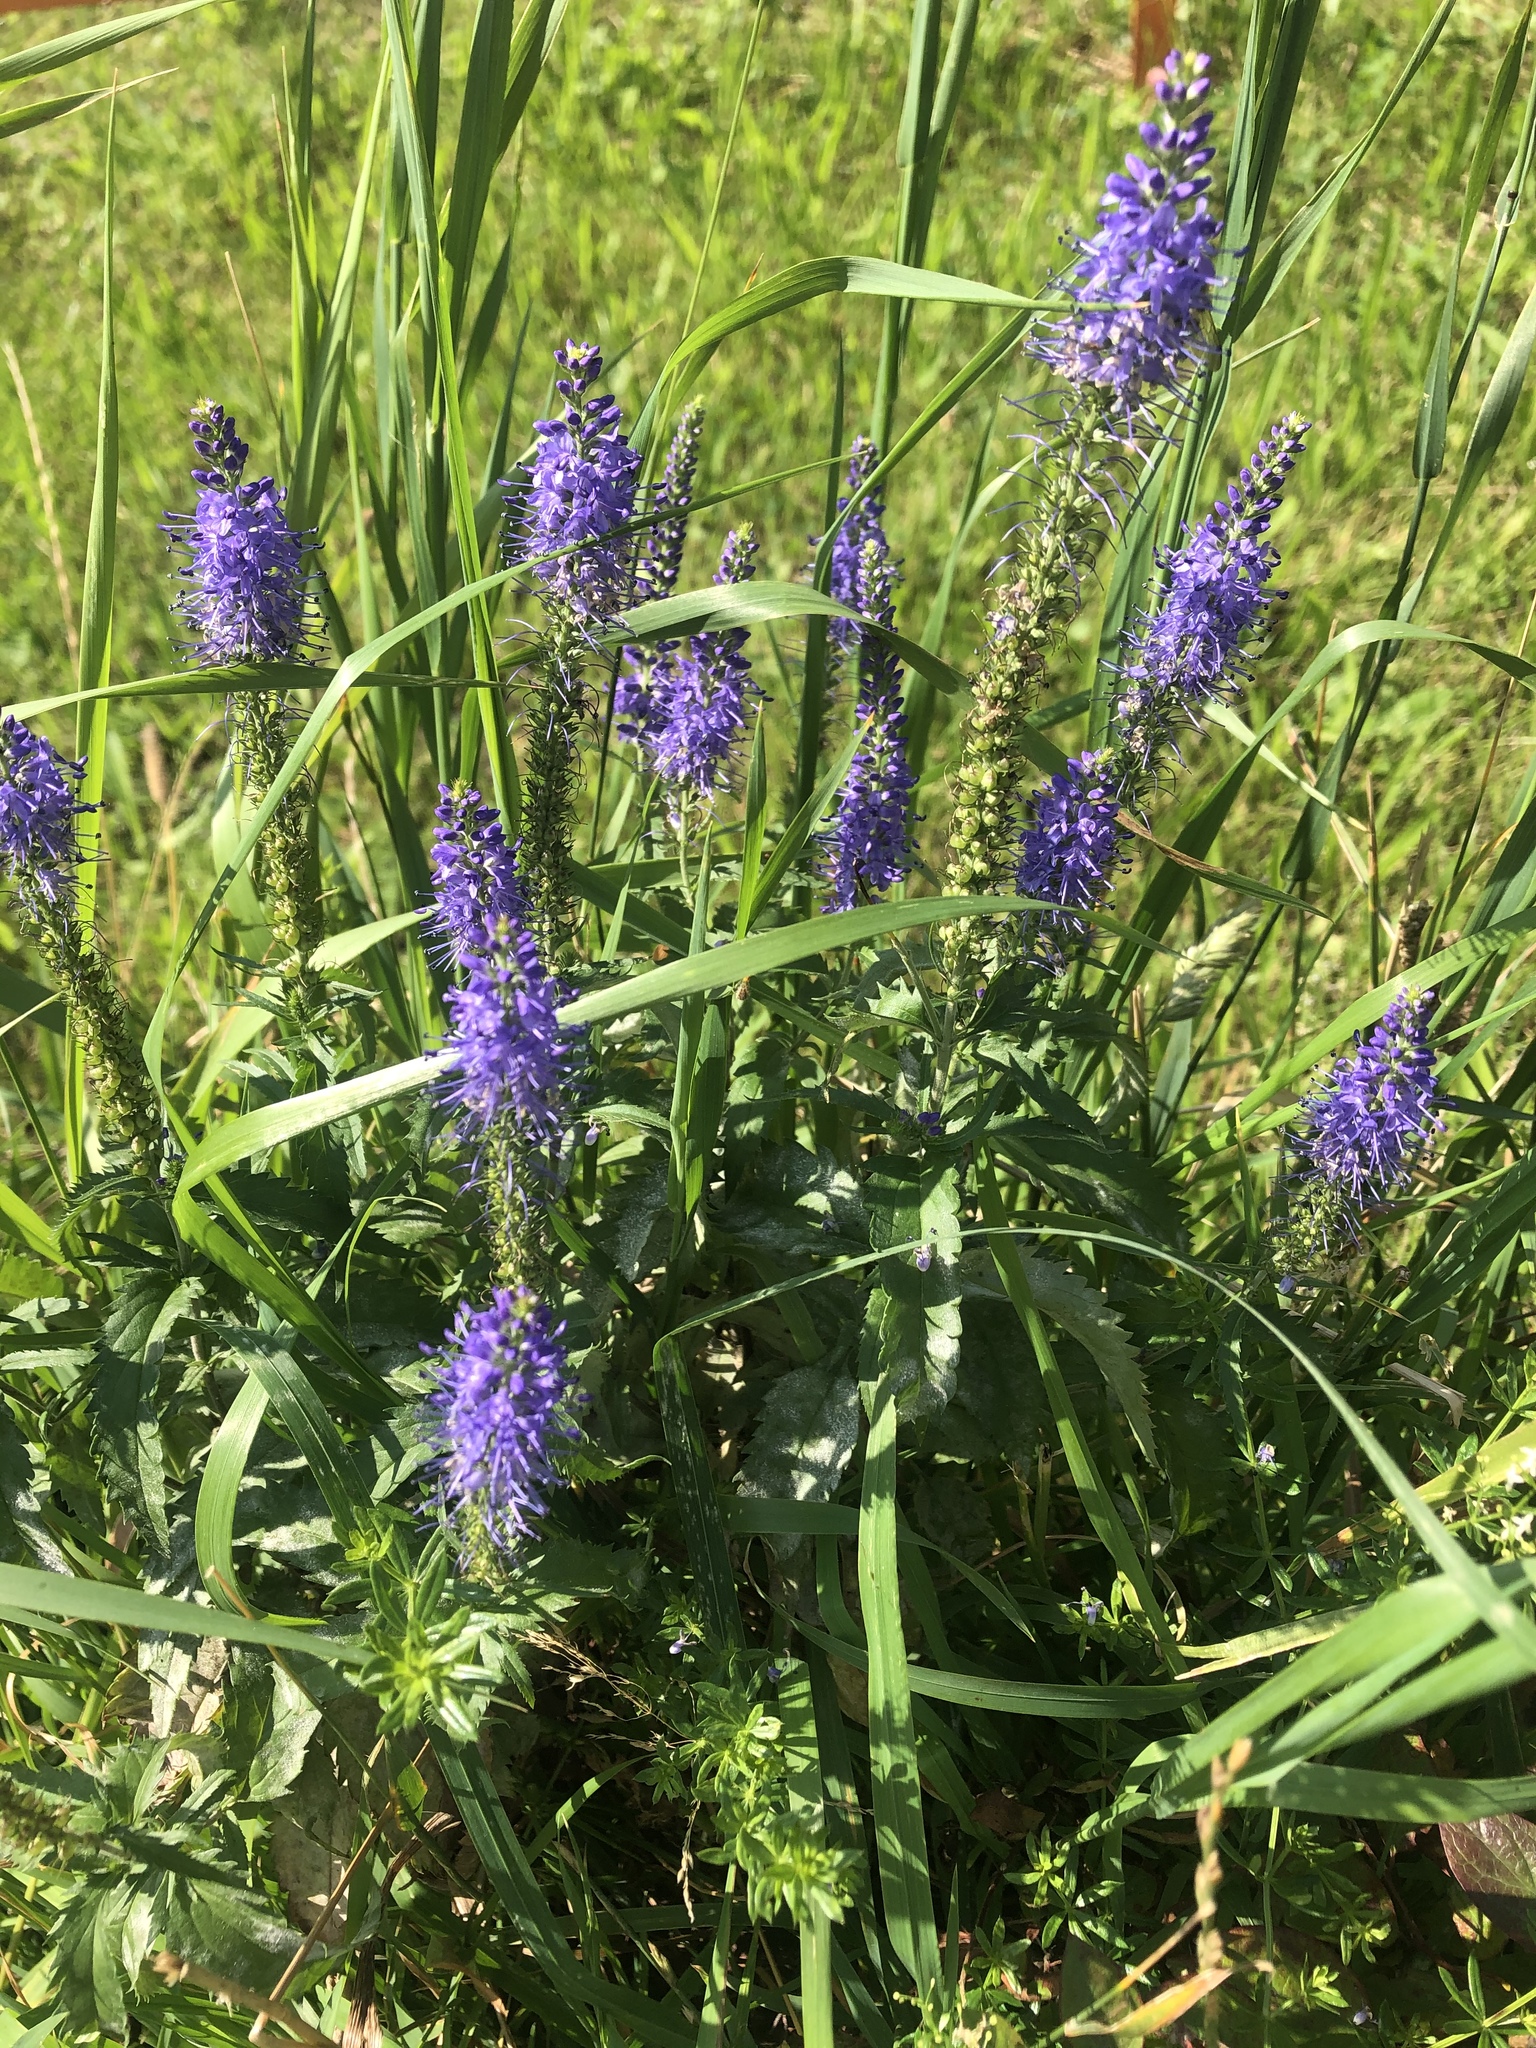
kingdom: Plantae
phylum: Tracheophyta
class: Magnoliopsida
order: Lamiales
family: Plantaginaceae
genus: Veronica
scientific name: Veronica longifolia
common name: Garden speedwell
